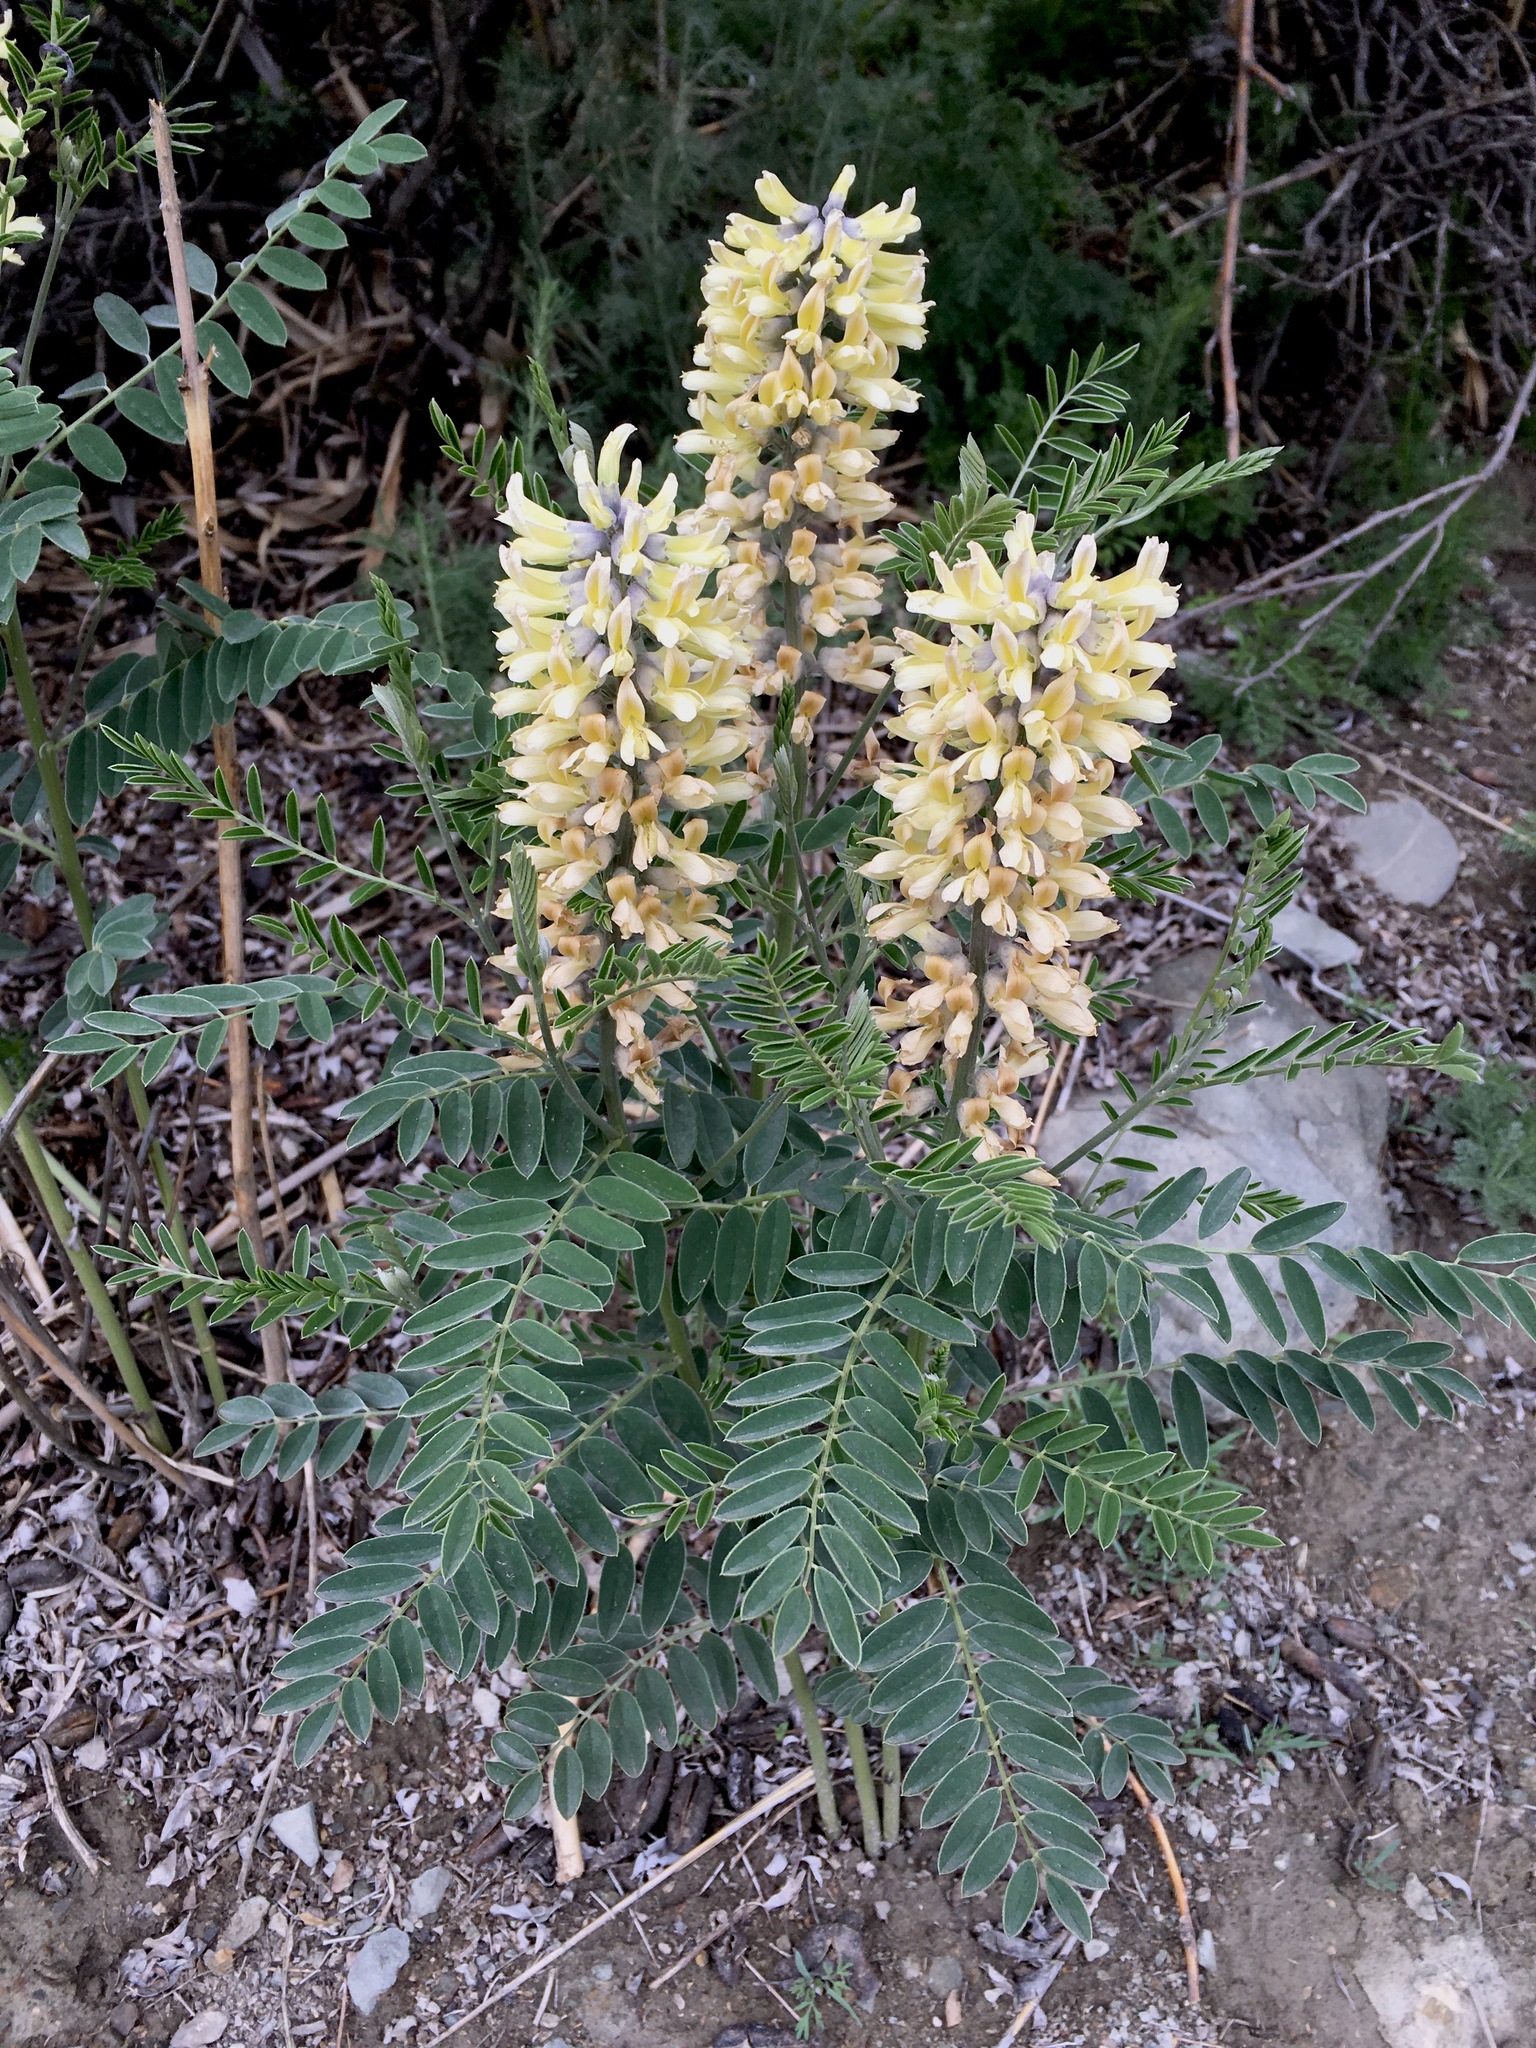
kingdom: Plantae
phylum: Tracheophyta
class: Magnoliopsida
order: Fabales
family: Fabaceae
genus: Sophora
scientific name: Sophora alopecuroides
